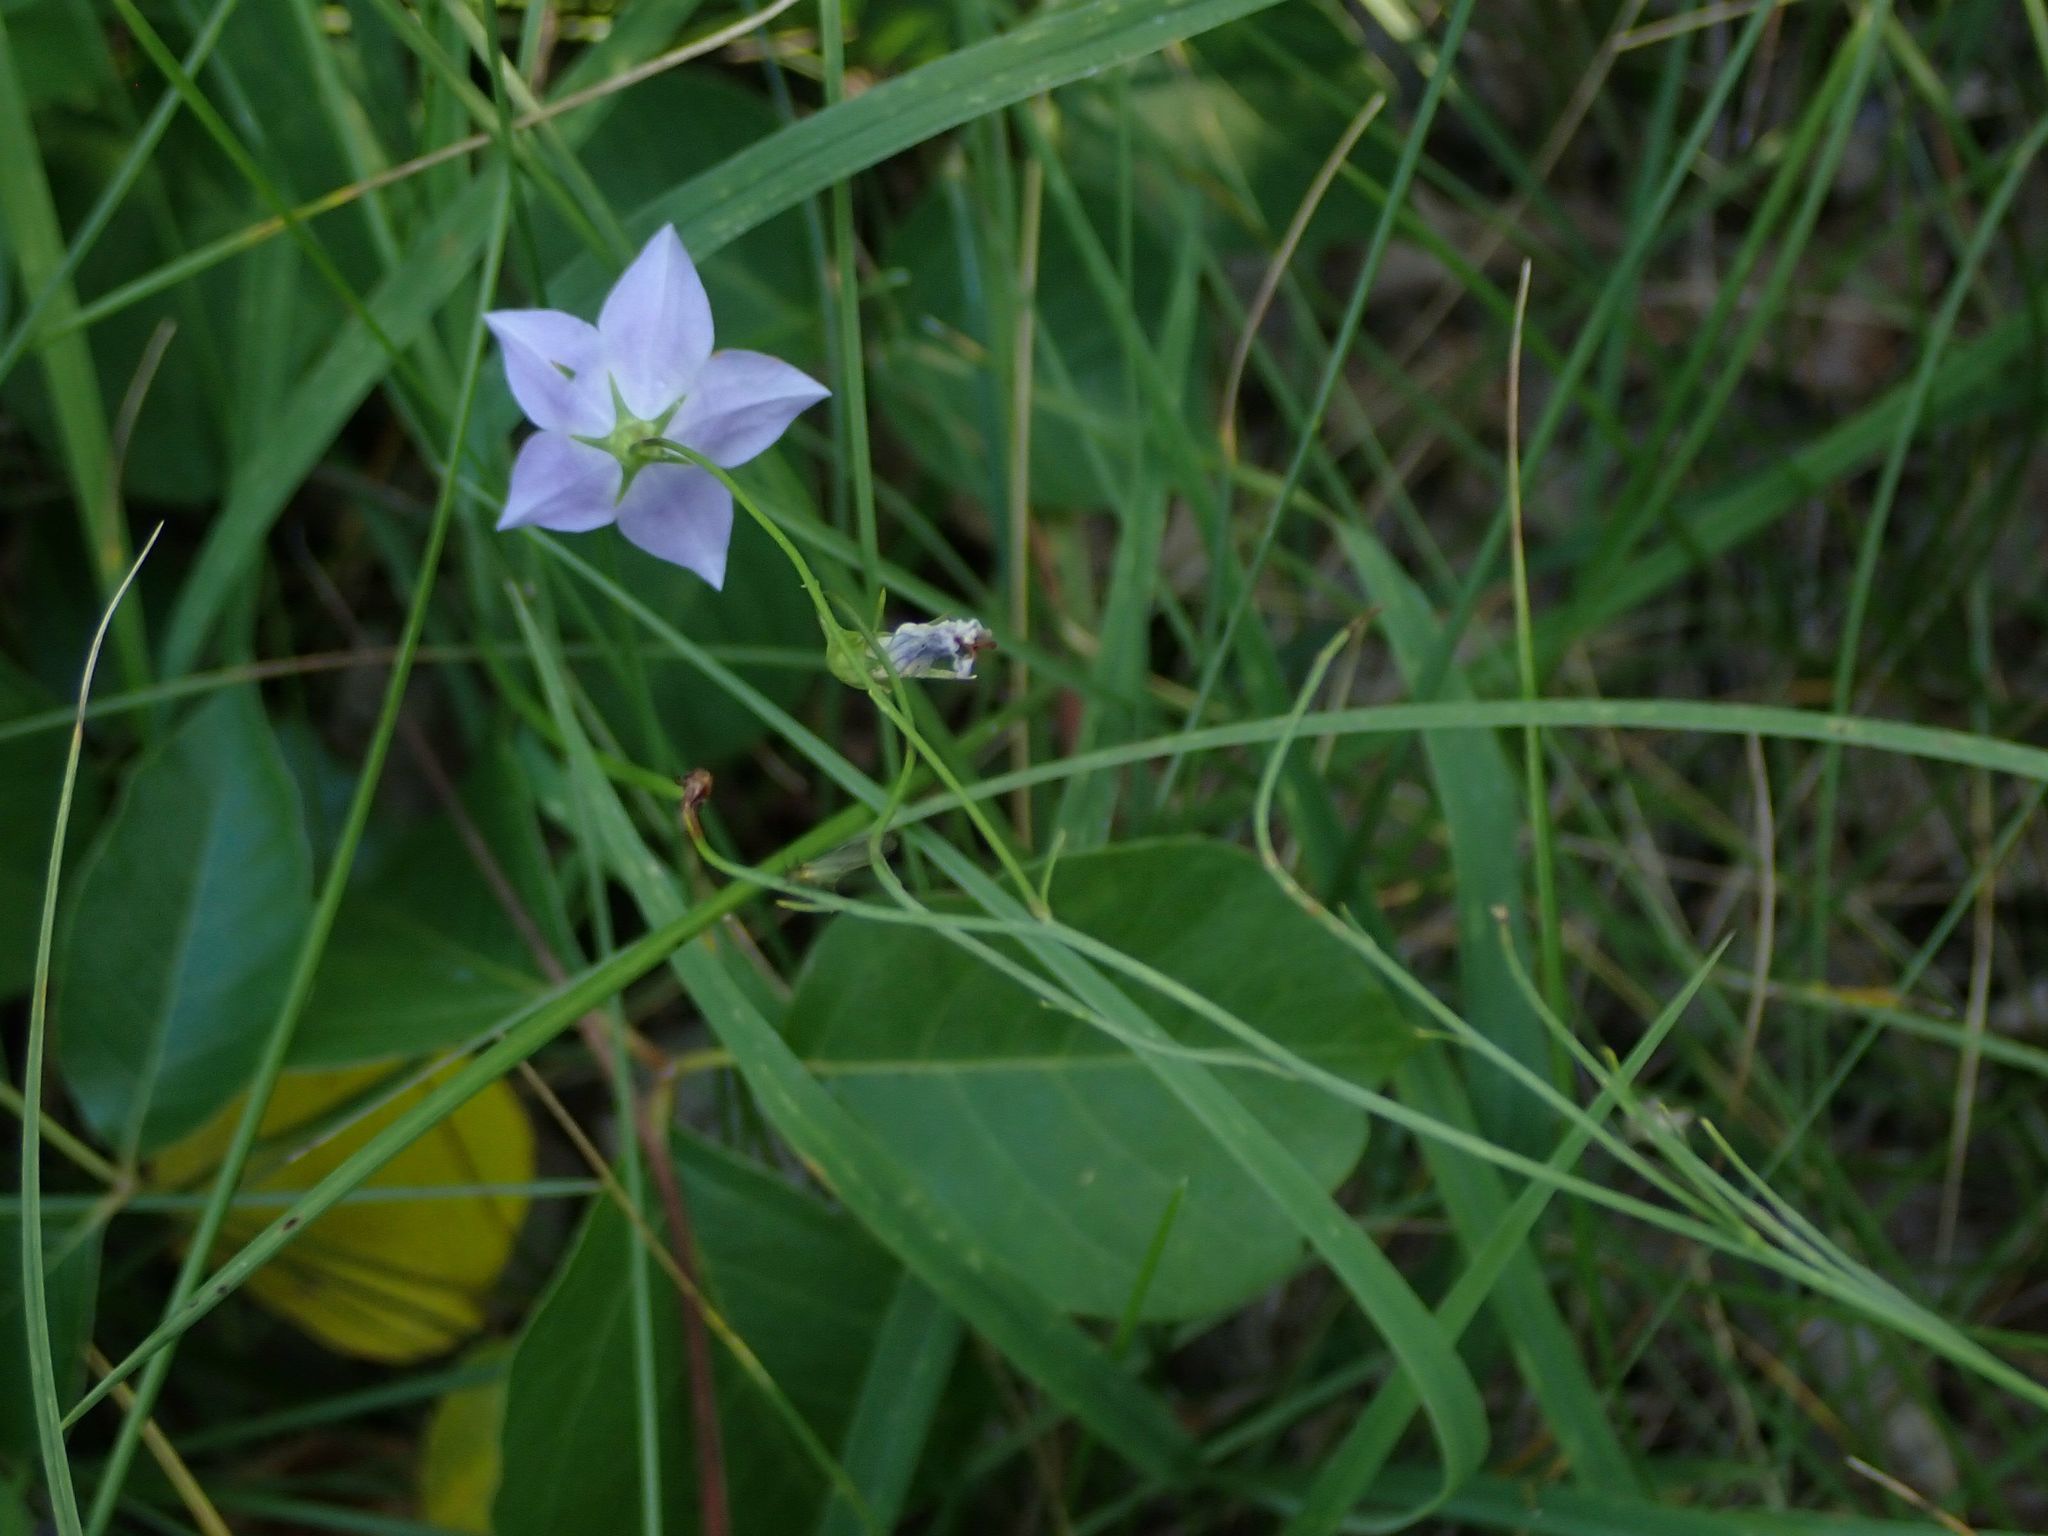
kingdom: Plantae
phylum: Tracheophyta
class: Magnoliopsida
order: Asterales
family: Campanulaceae
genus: Campanula
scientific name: Campanula petiolata
